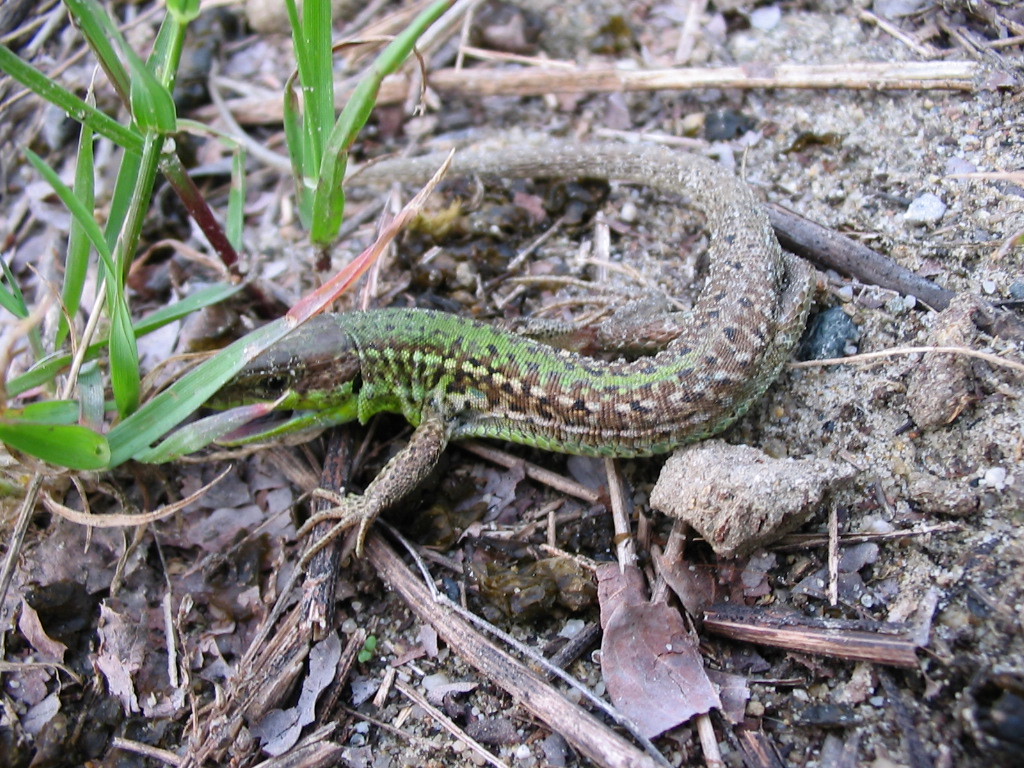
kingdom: Animalia
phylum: Chordata
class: Squamata
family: Lacertidae
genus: Podarcis
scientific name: Podarcis tauricus
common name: Balkan wall lizard
